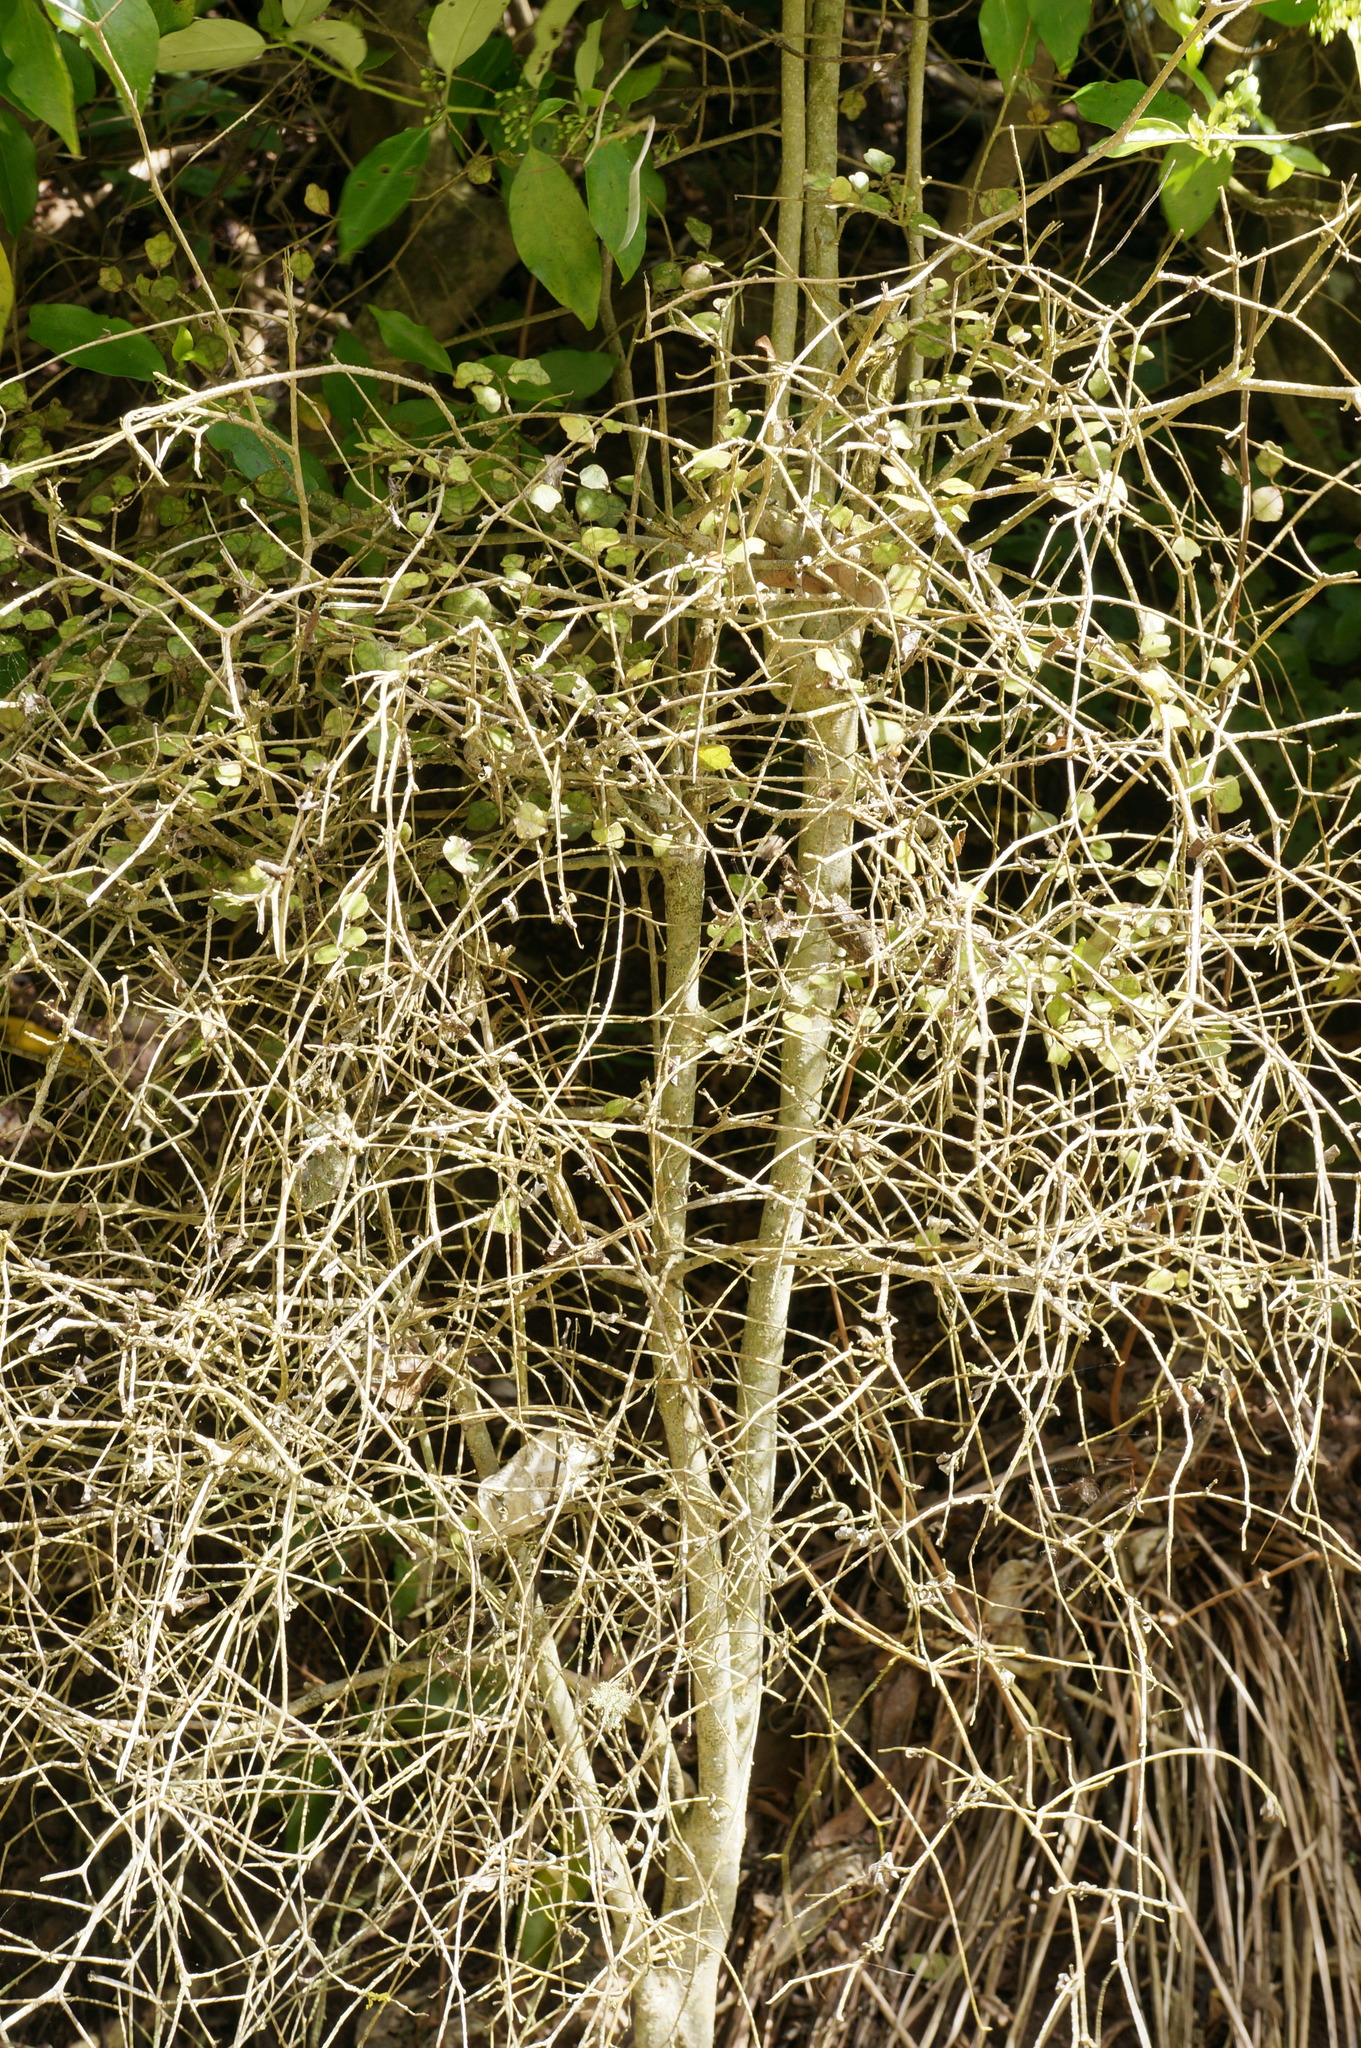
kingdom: Plantae
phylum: Tracheophyta
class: Magnoliopsida
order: Apiales
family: Pennantiaceae
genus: Pennantia
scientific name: Pennantia corymbosa
